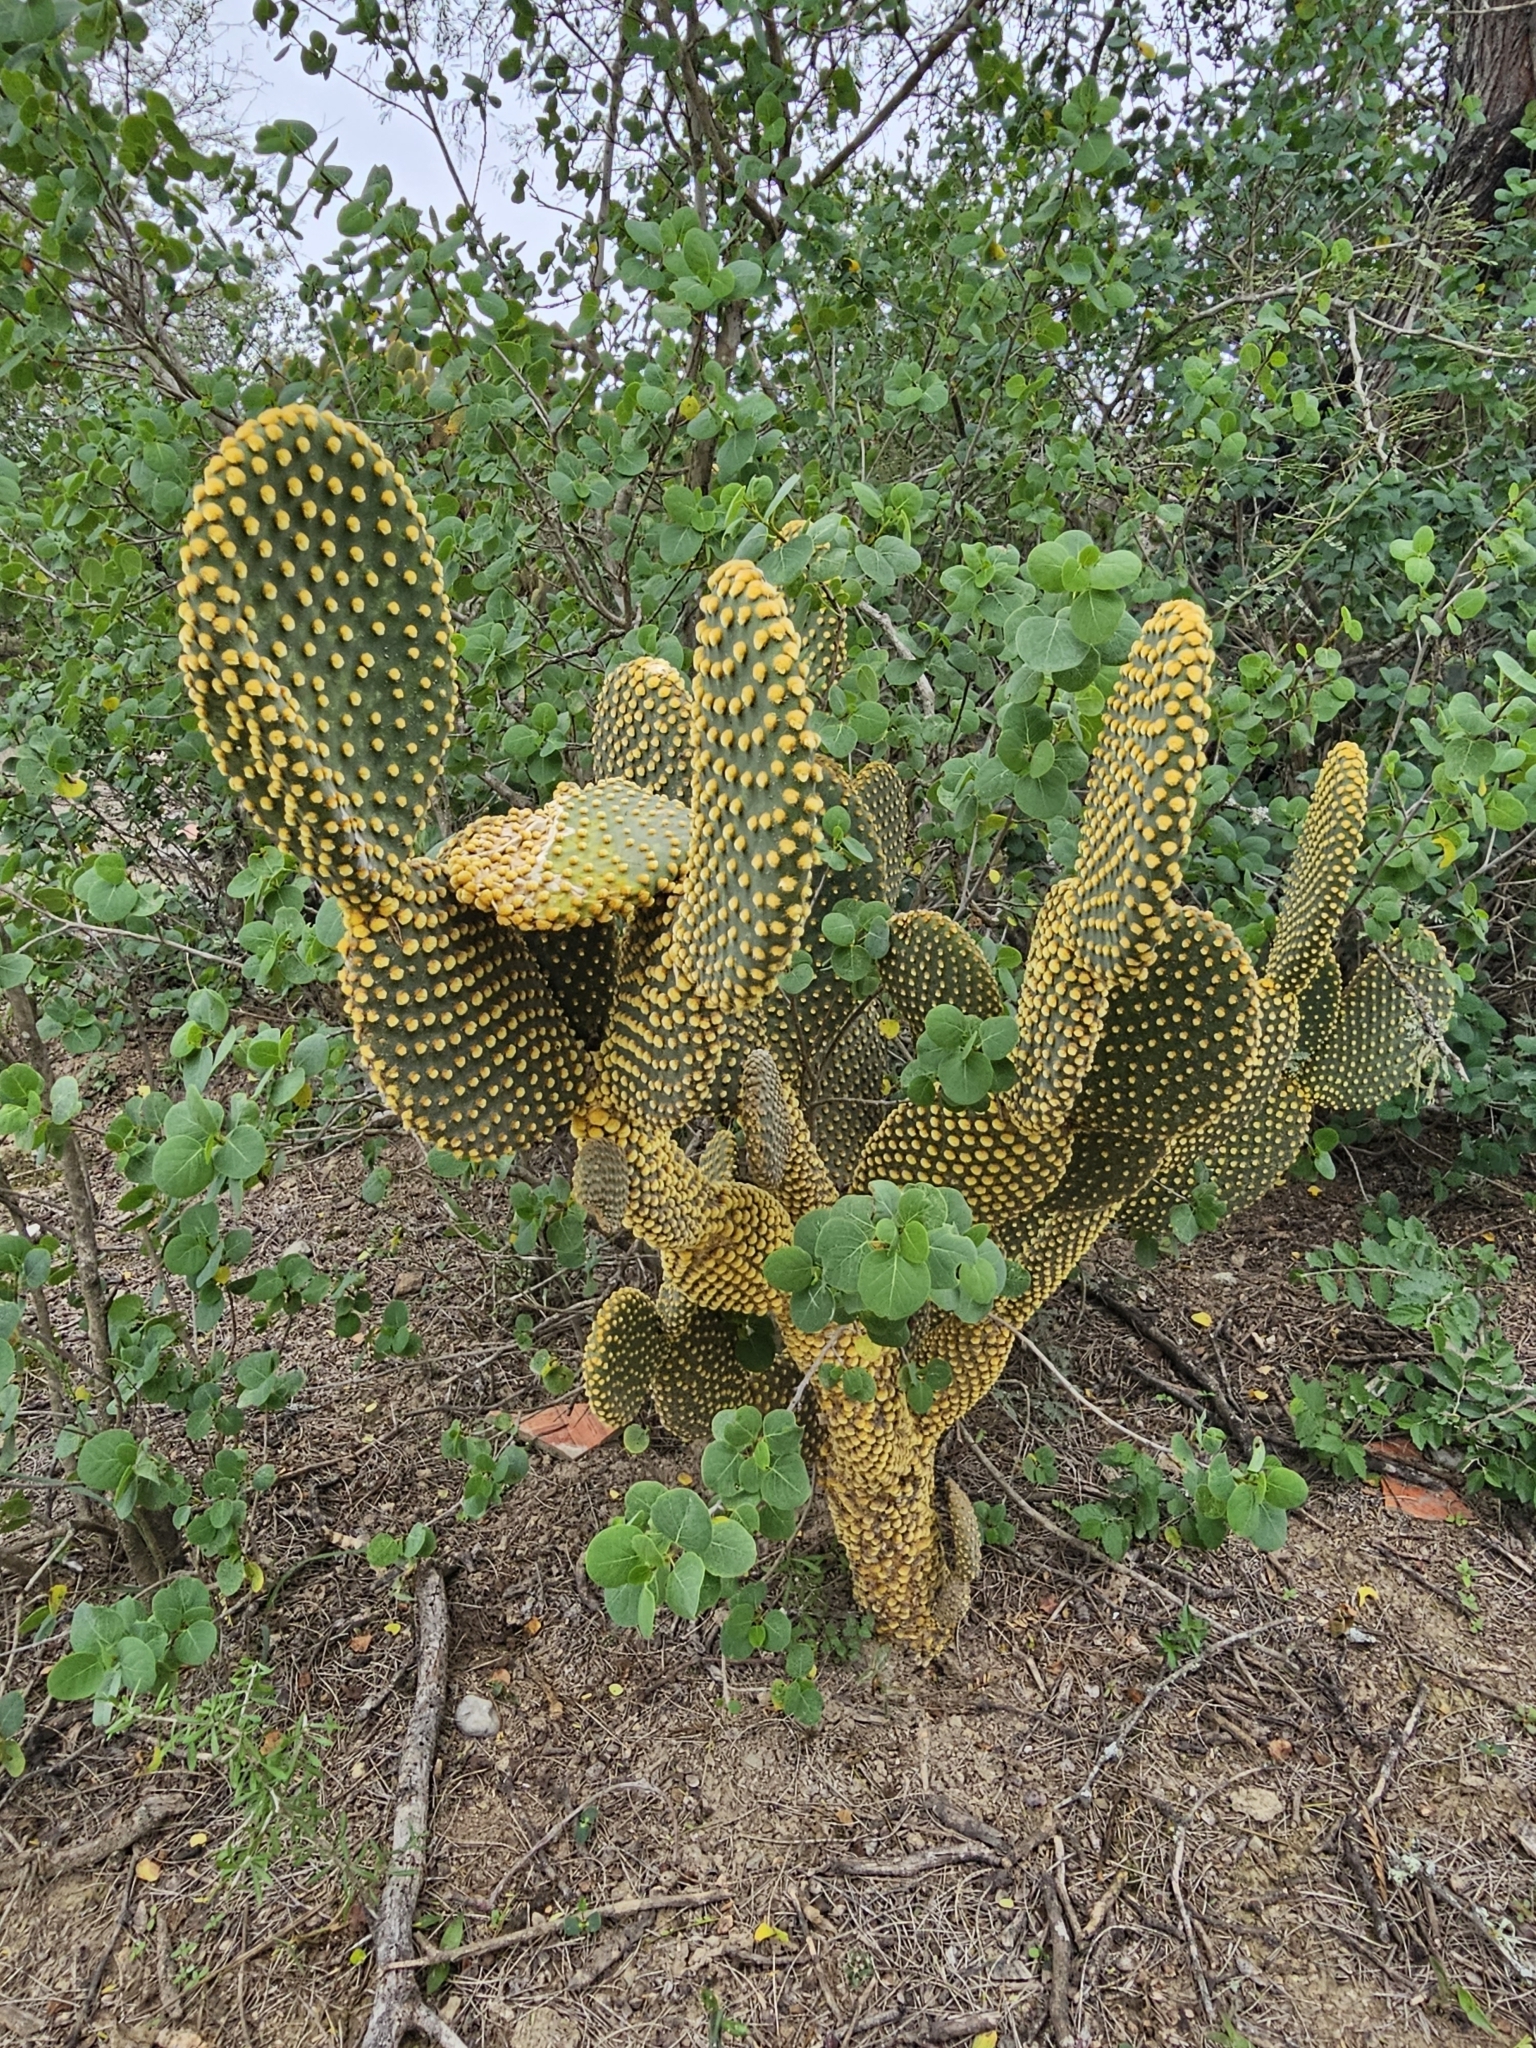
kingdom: Plantae
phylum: Tracheophyta
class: Magnoliopsida
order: Caryophyllales
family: Cactaceae
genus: Opuntia
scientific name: Opuntia microdasys
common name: Angel's-wings
